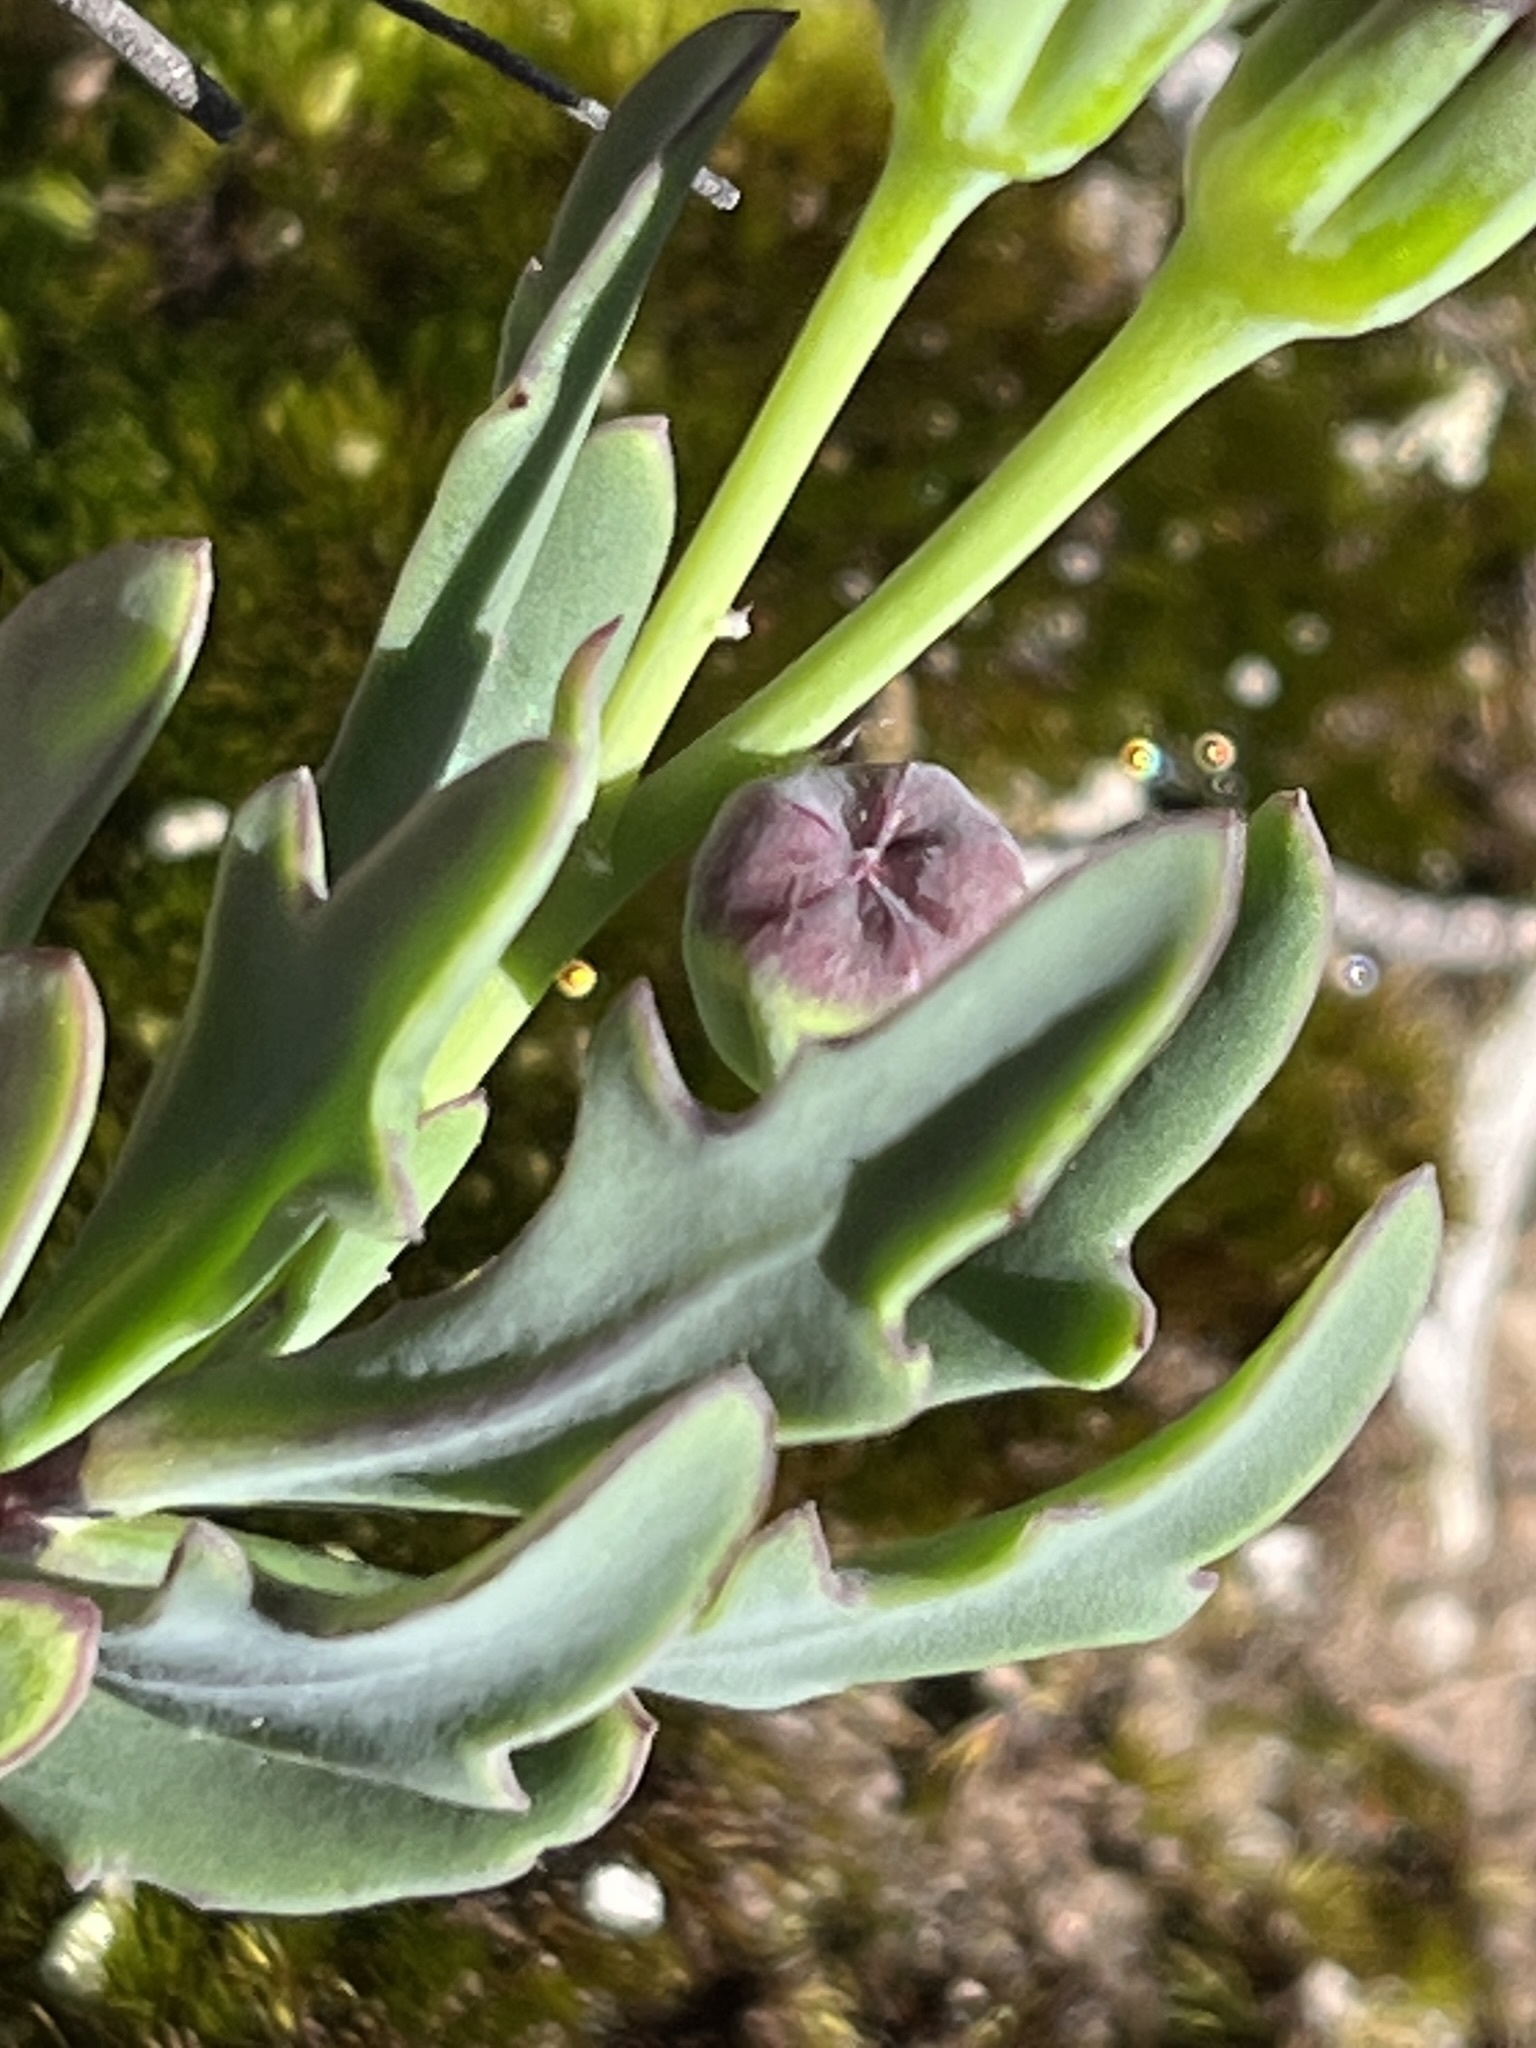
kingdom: Plantae
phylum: Tracheophyta
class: Magnoliopsida
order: Asterales
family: Asteraceae
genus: Othonna
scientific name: Othonna quercifolia
